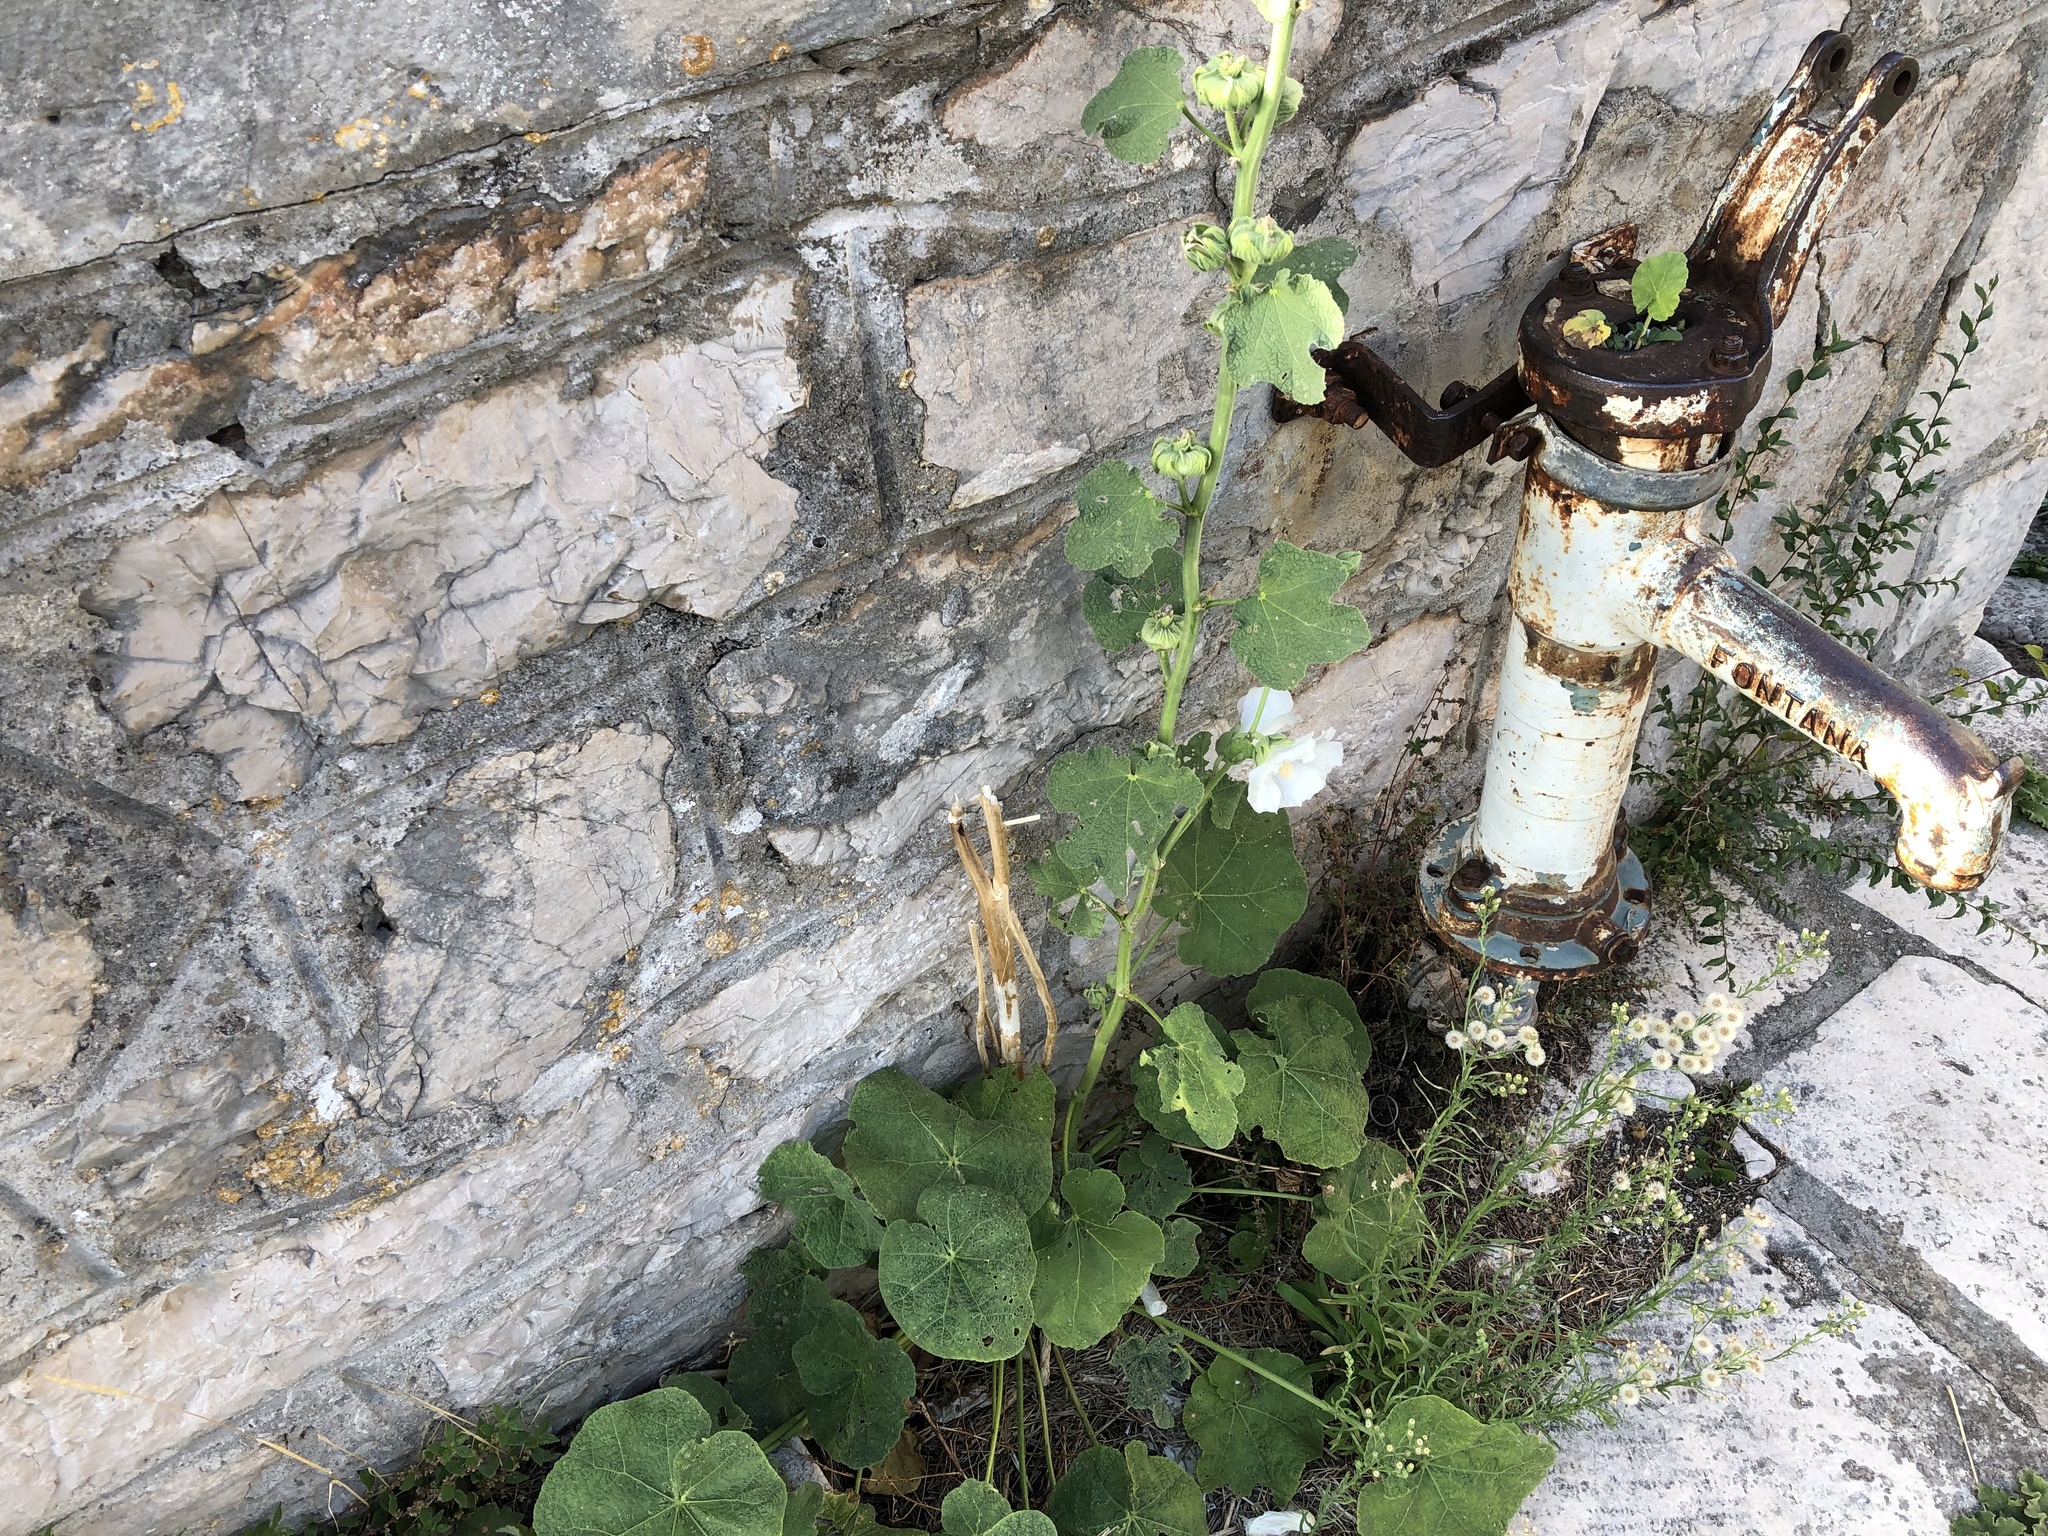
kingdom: Plantae
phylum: Tracheophyta
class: Magnoliopsida
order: Malvales
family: Malvaceae
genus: Alcea
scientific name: Alcea rosea
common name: Hollyhock
